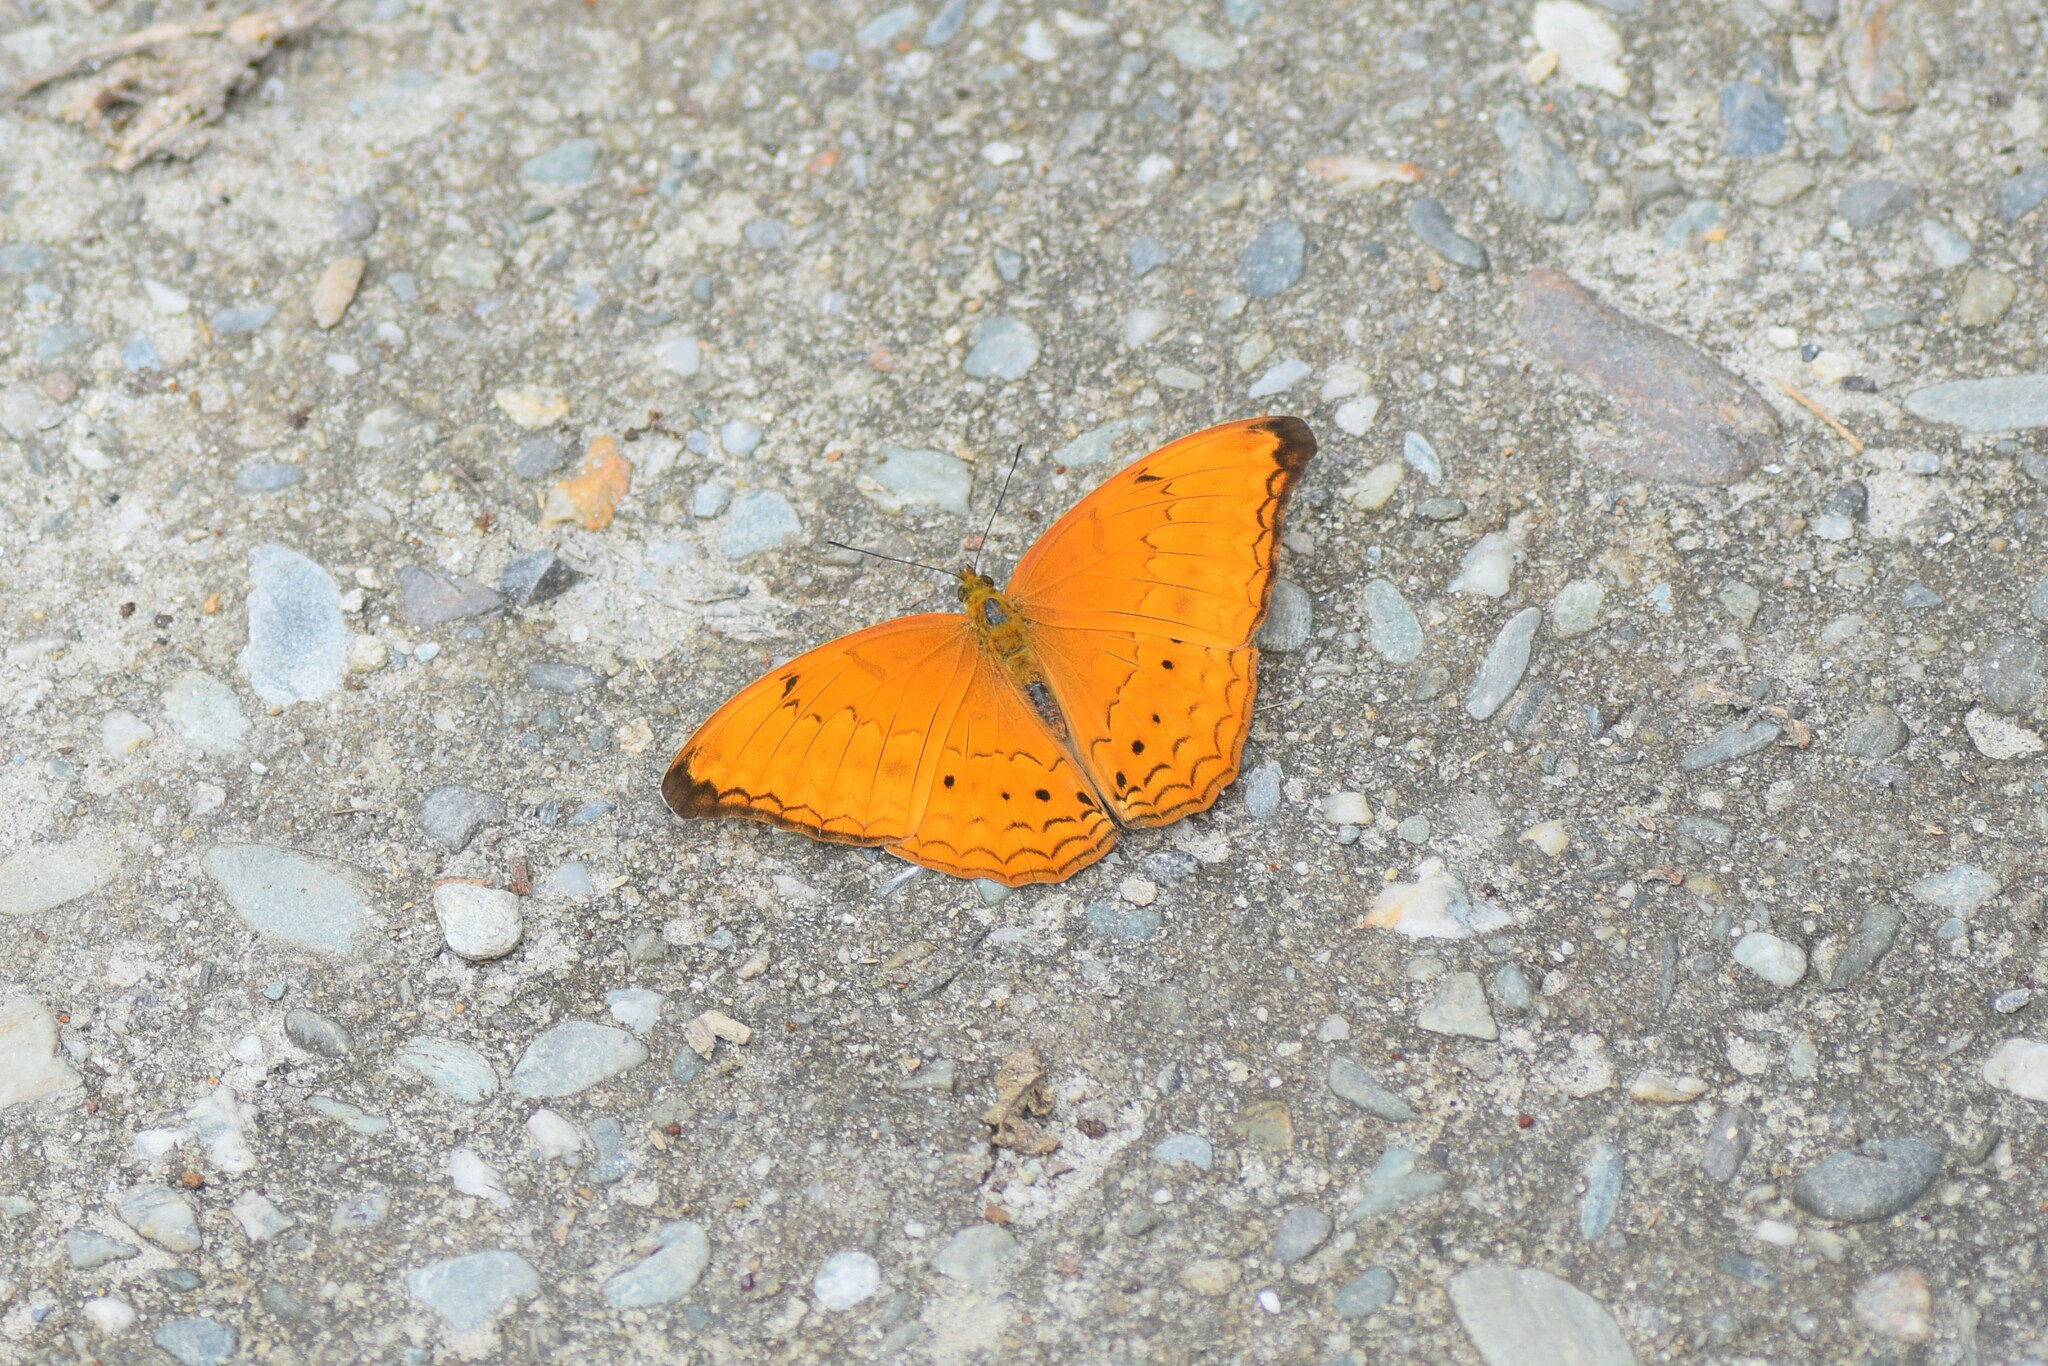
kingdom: Animalia
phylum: Arthropoda
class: Insecta
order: Lepidoptera
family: Nymphalidae
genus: Cirrochroa
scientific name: Cirrochroa tyche
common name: Common yeoman
